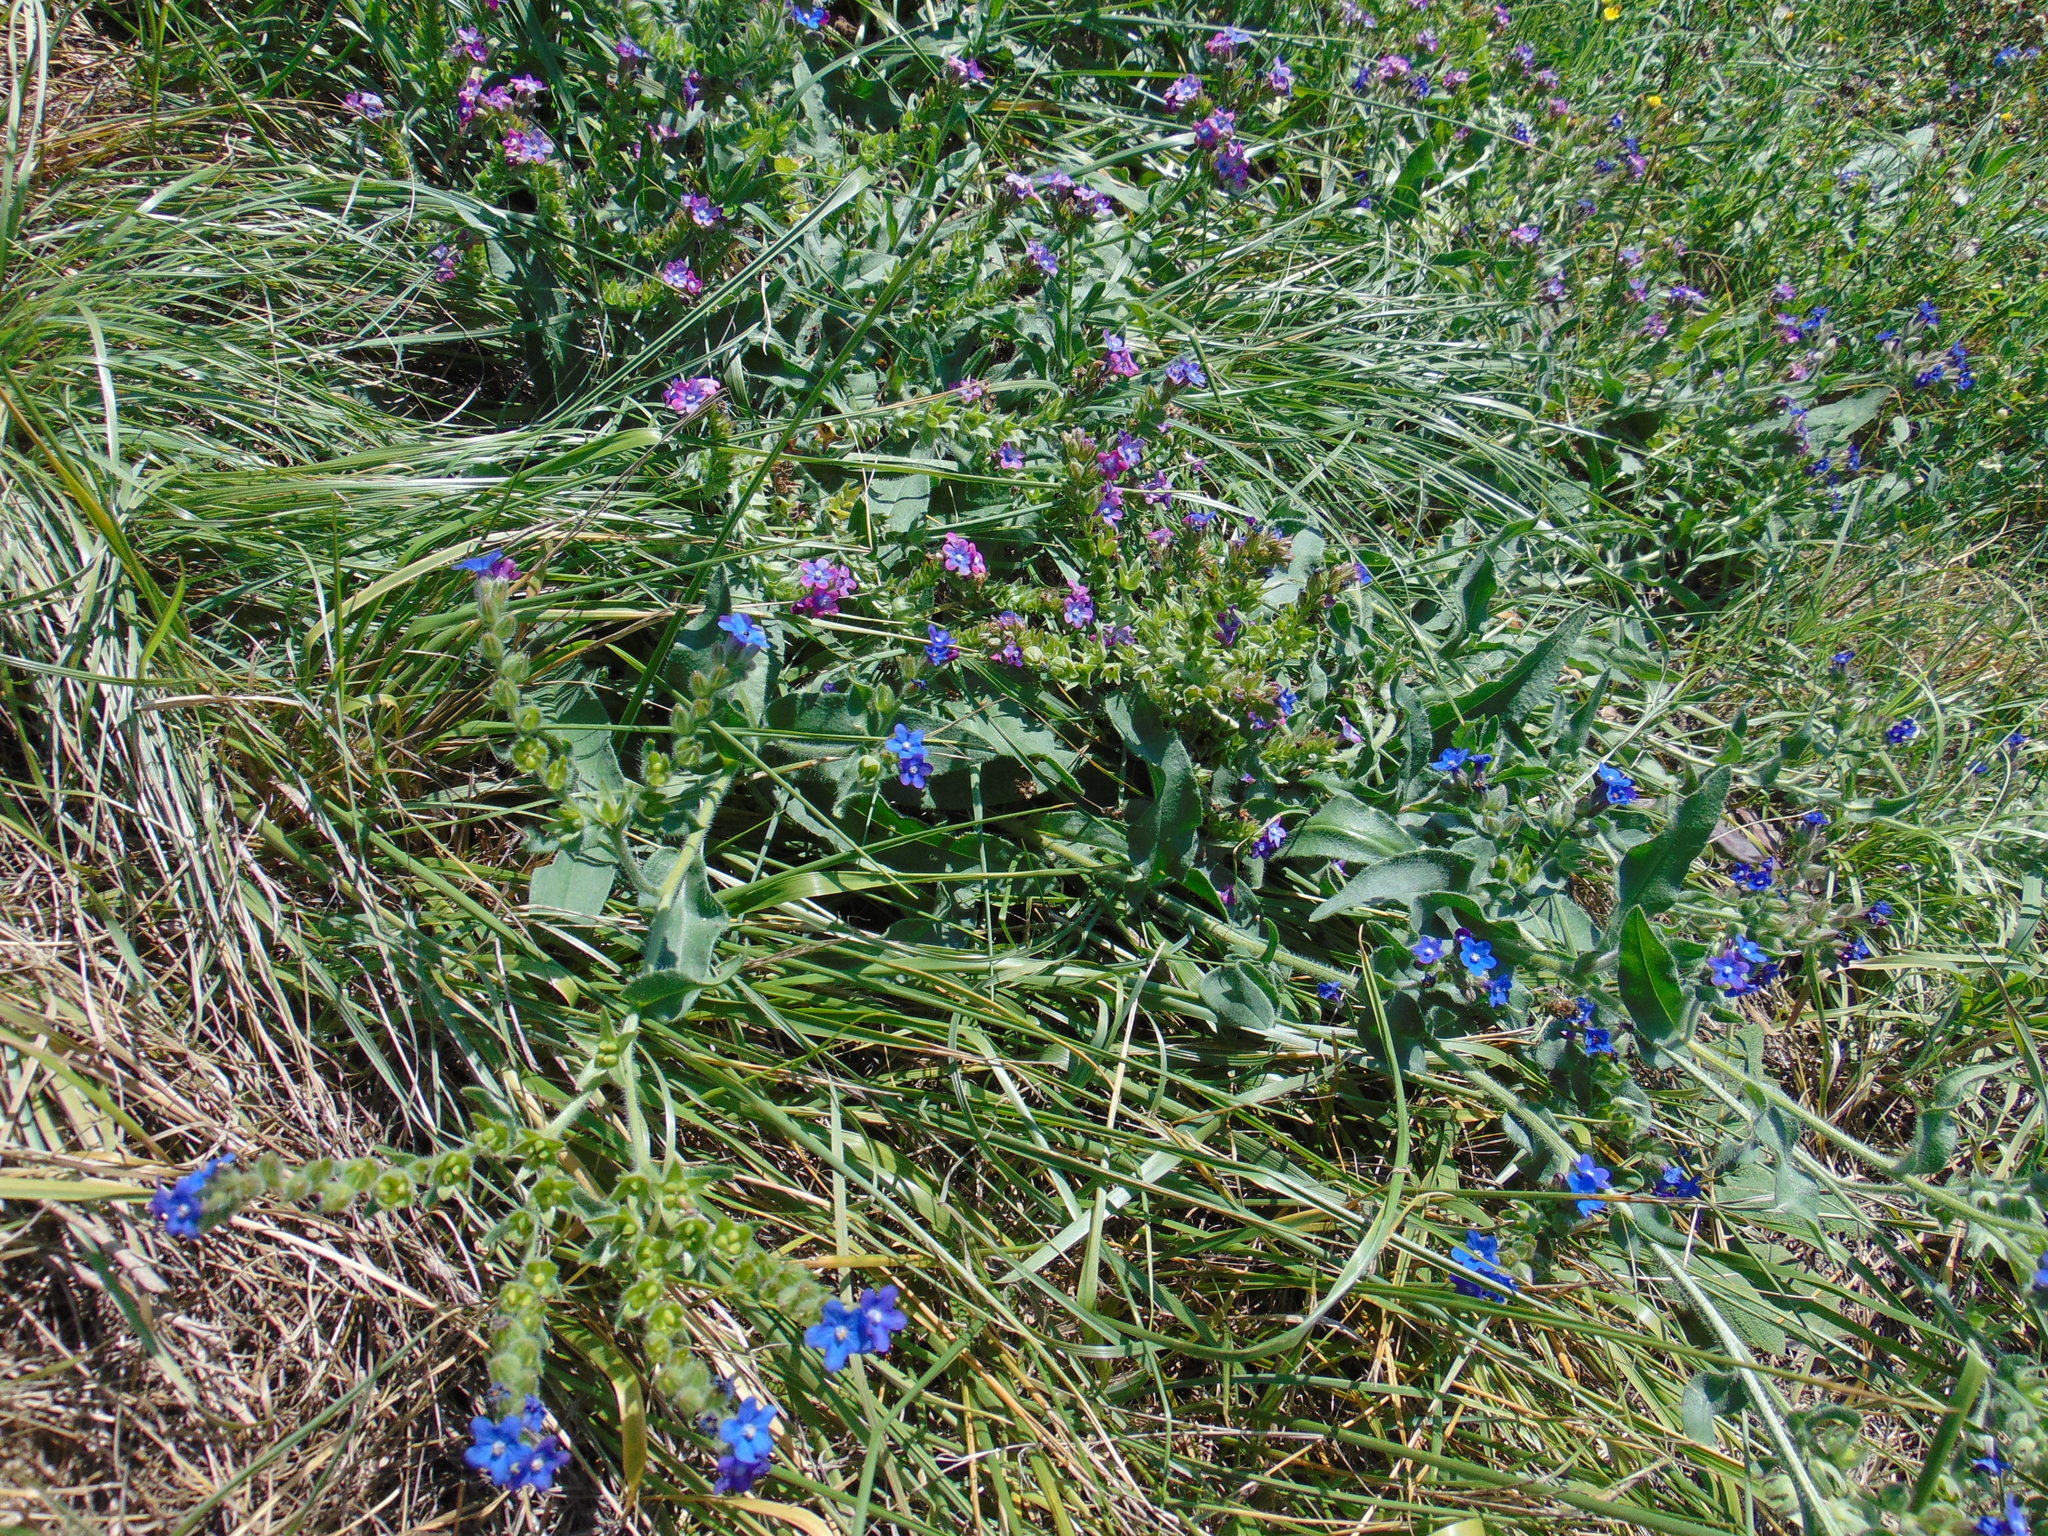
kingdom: Plantae
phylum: Tracheophyta
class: Magnoliopsida
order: Boraginales
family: Boraginaceae
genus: Anchusa
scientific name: Anchusa officinalis
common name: Alkanet
